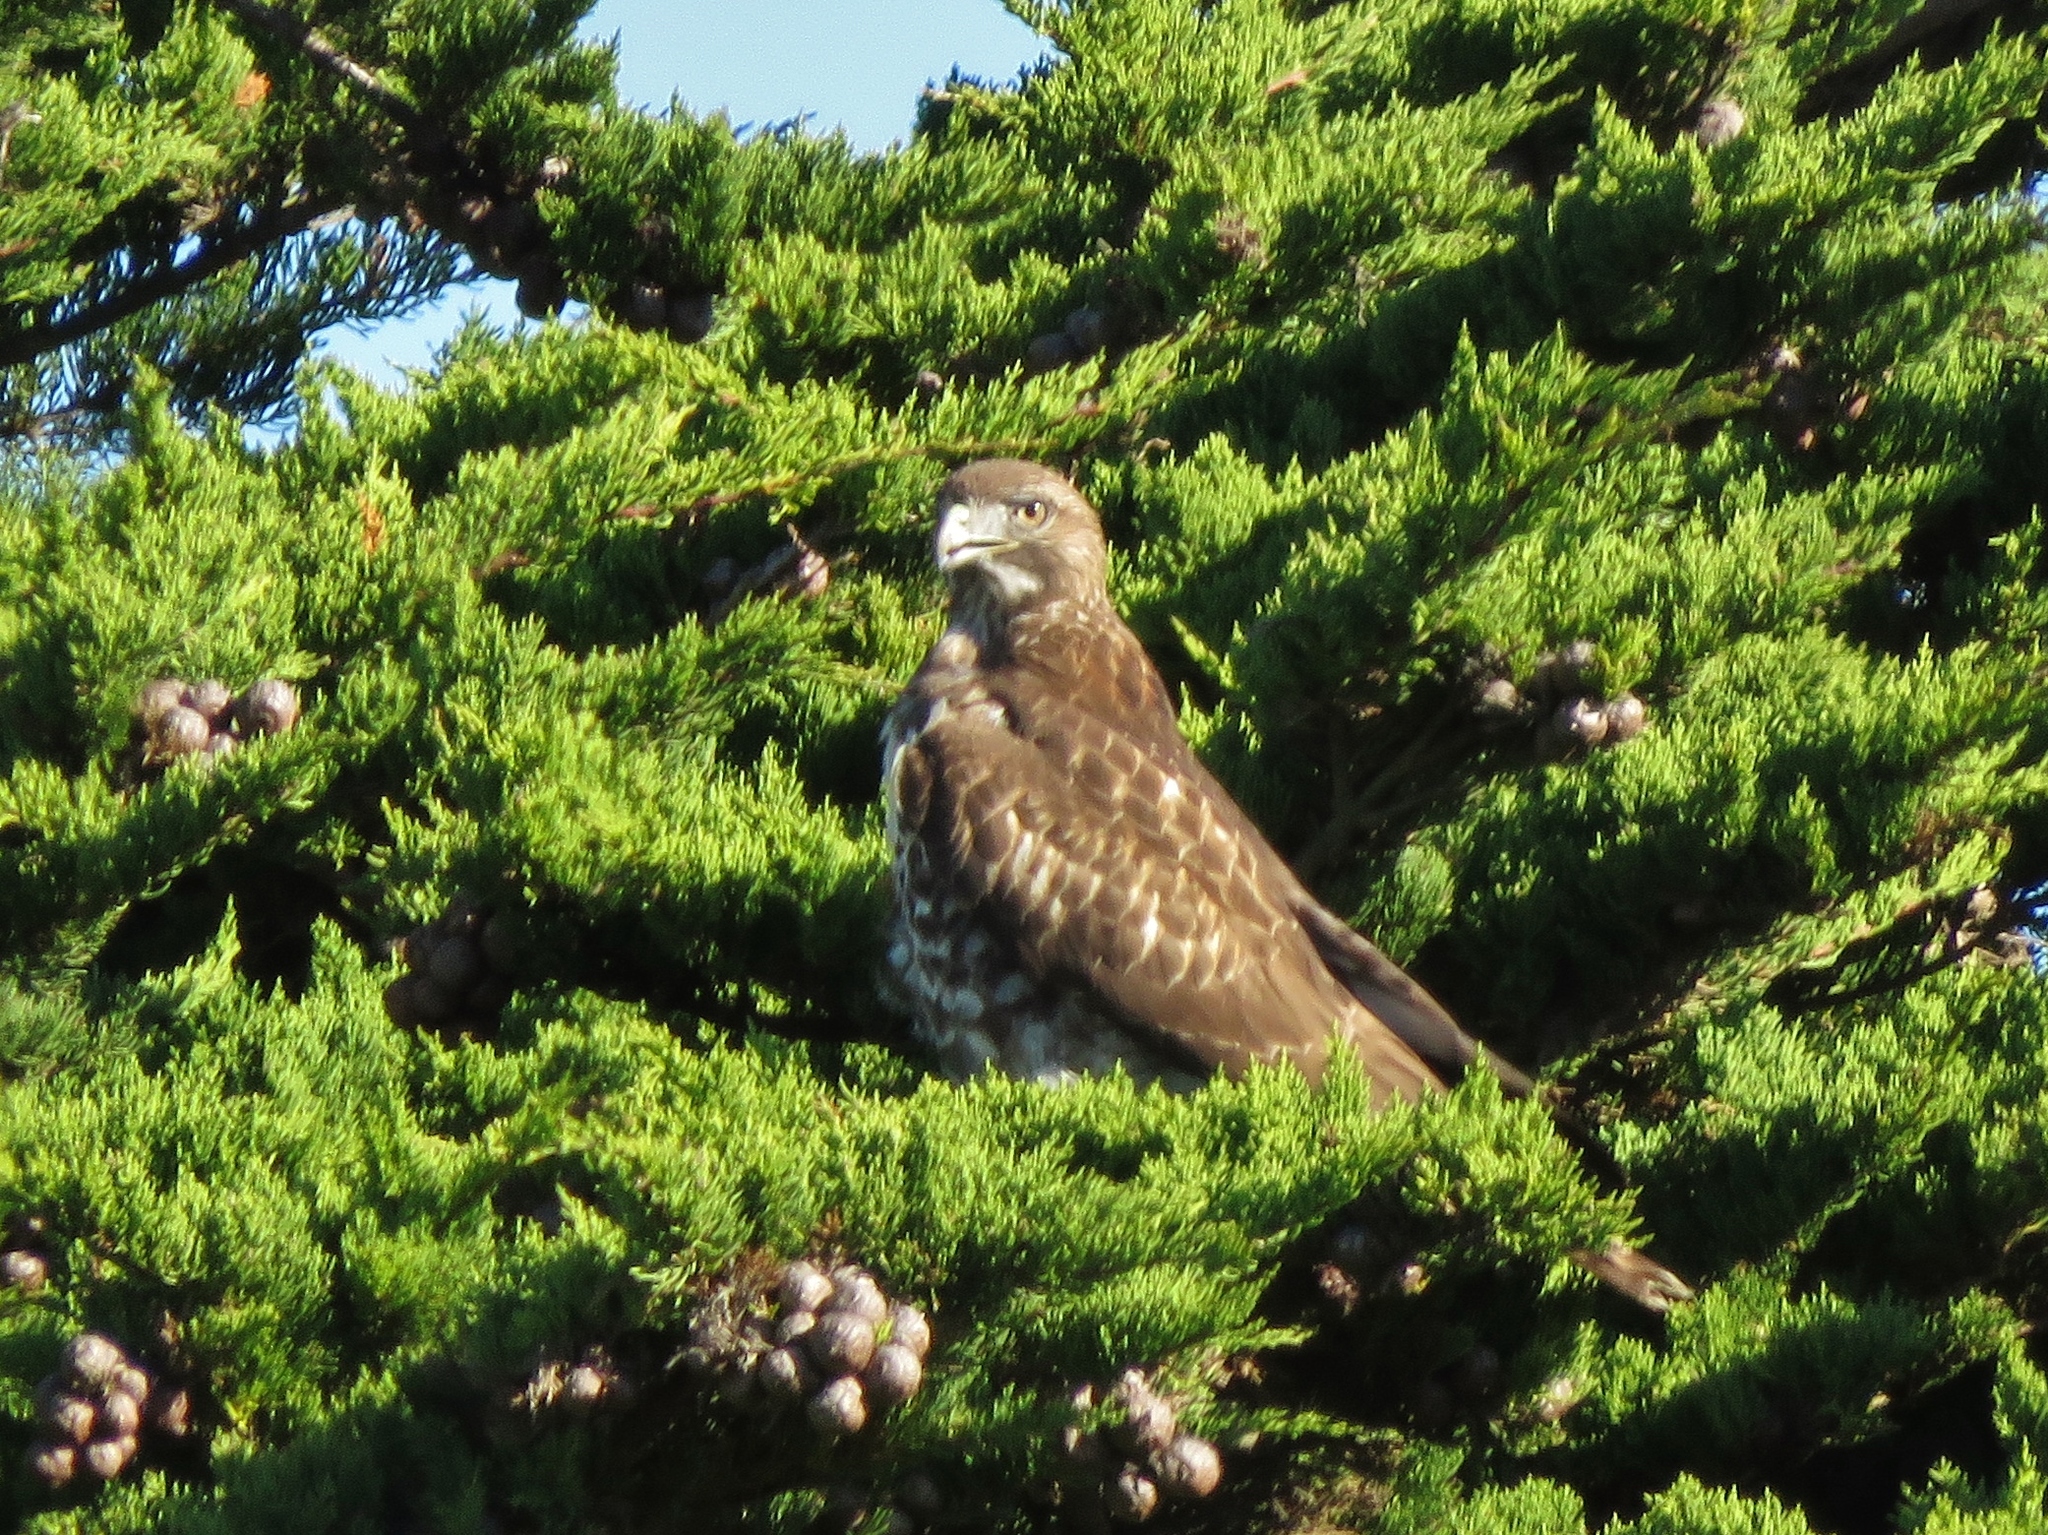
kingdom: Animalia
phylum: Chordata
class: Aves
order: Accipitriformes
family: Accipitridae
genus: Buteo
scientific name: Buteo jamaicensis
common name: Red-tailed hawk
